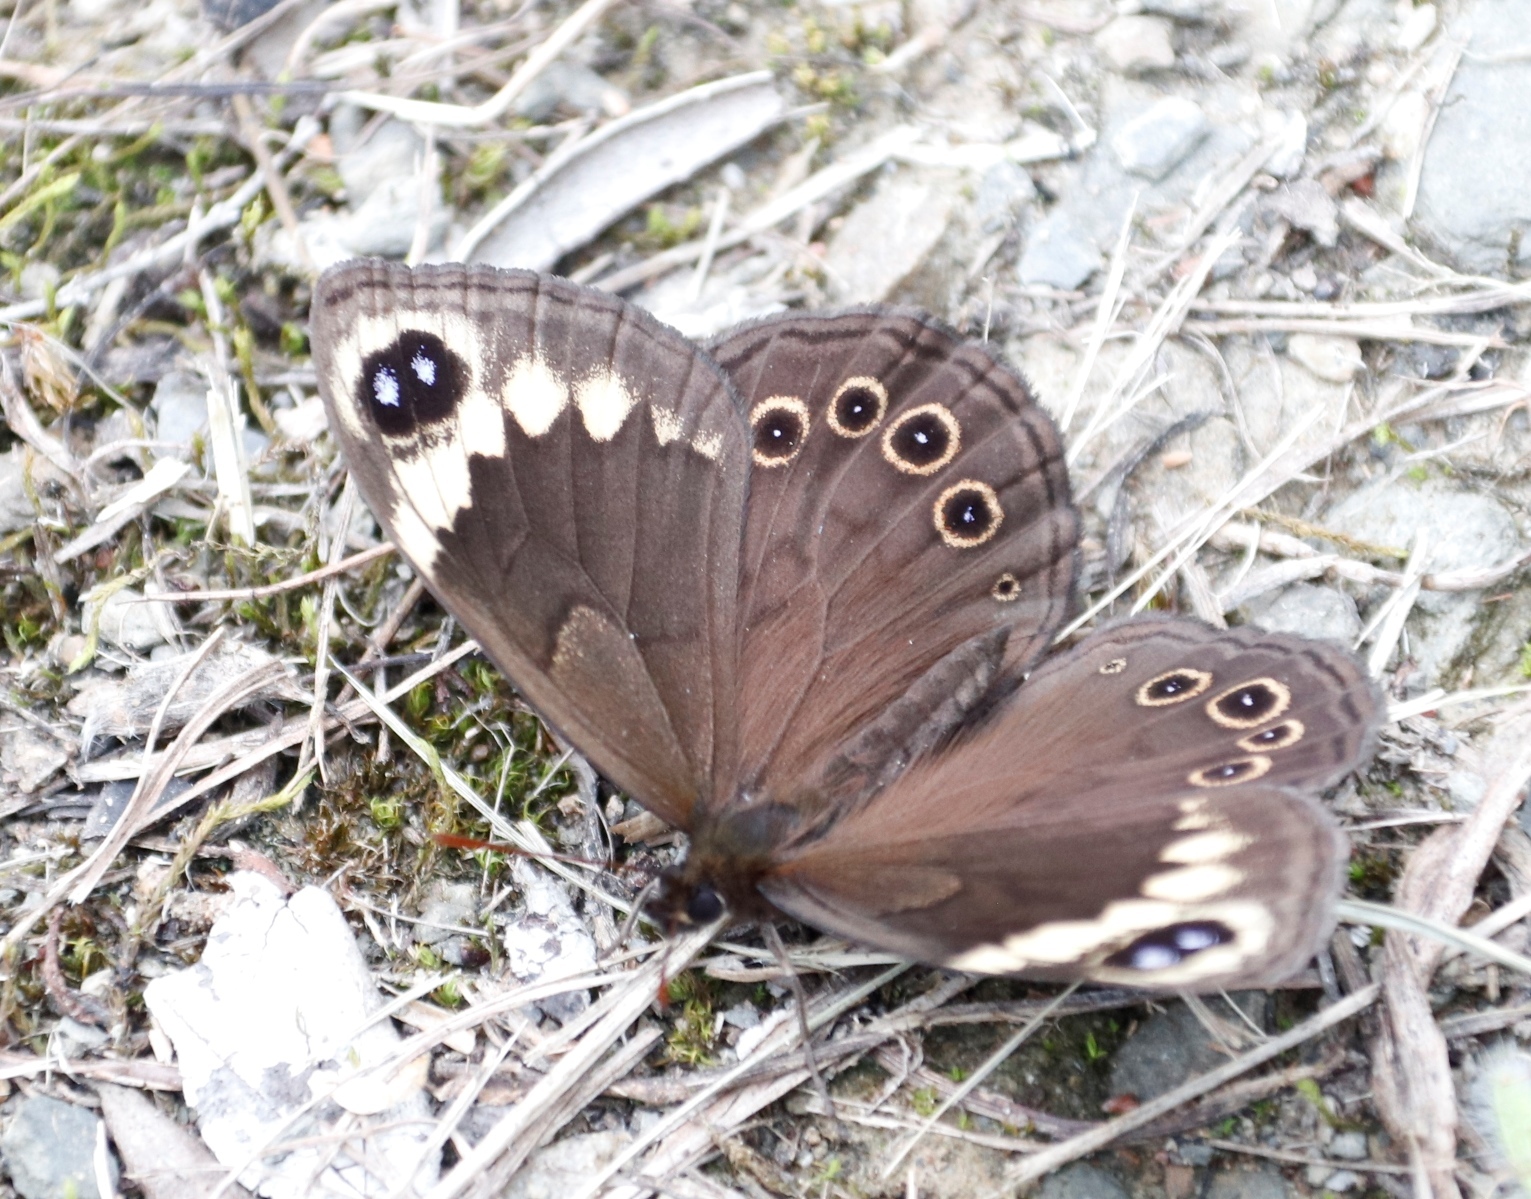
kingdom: Animalia
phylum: Arthropoda
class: Insecta
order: Lepidoptera
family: Nymphalidae
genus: Dira
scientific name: Dira clytus
